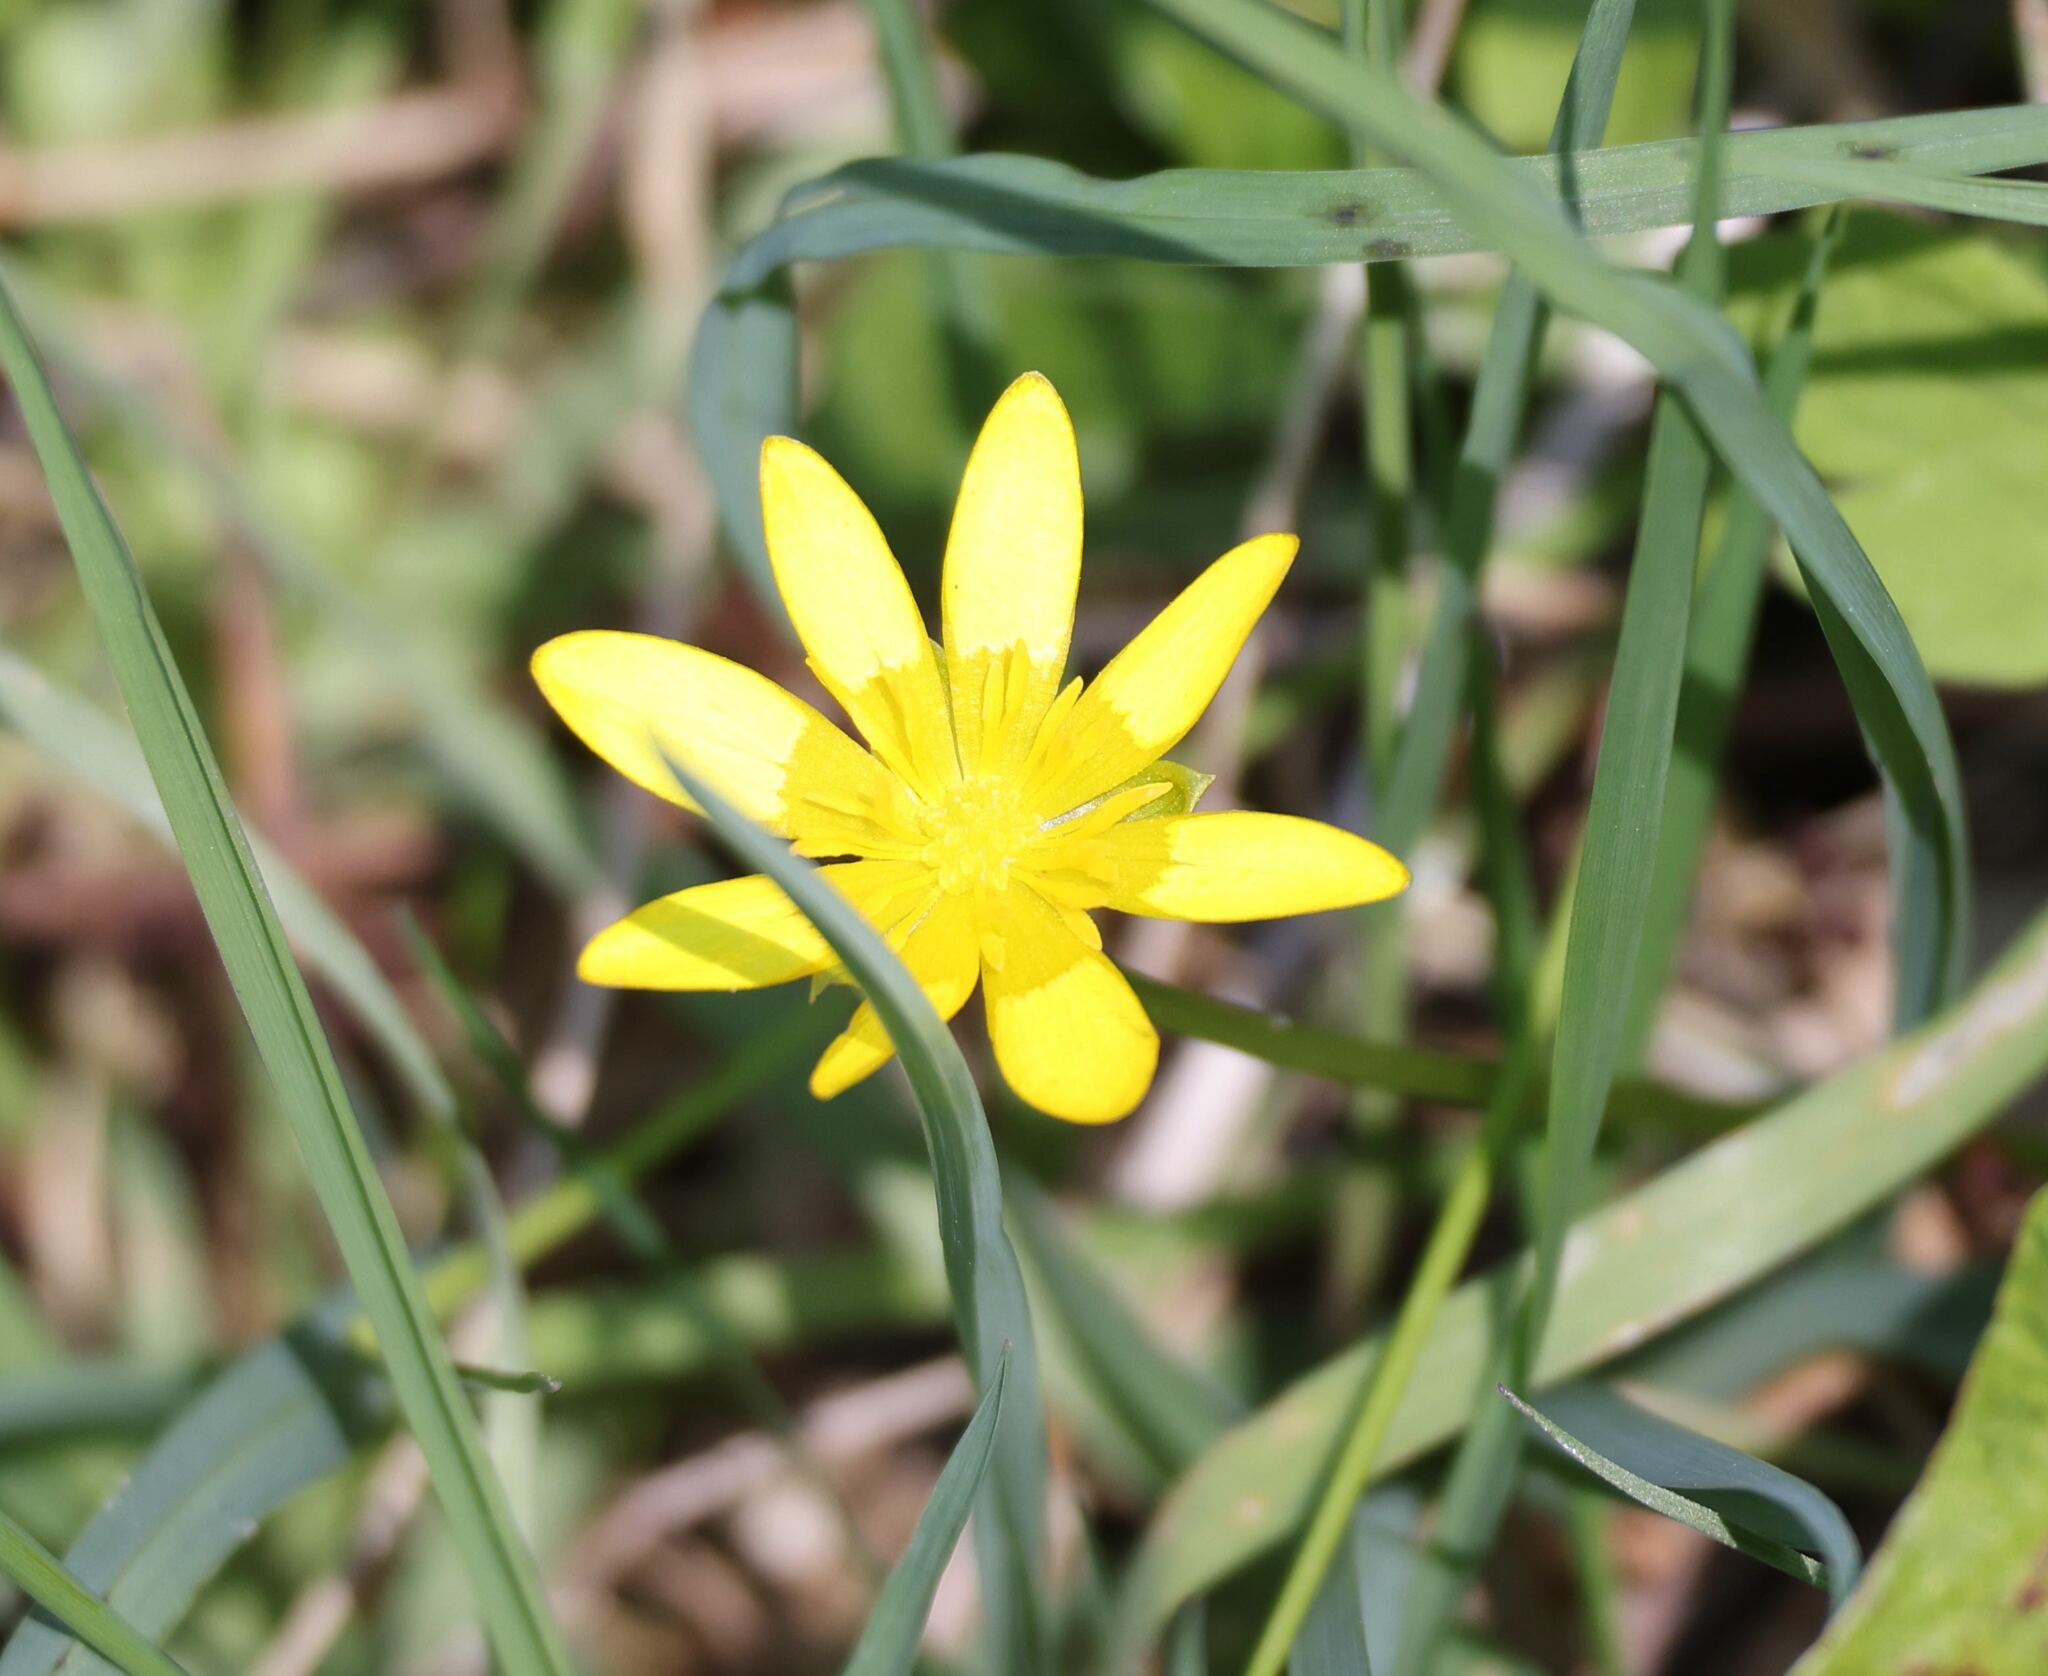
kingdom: Plantae
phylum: Tracheophyta
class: Magnoliopsida
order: Ranunculales
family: Ranunculaceae
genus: Ficaria
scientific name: Ficaria verna
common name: Lesser celandine
